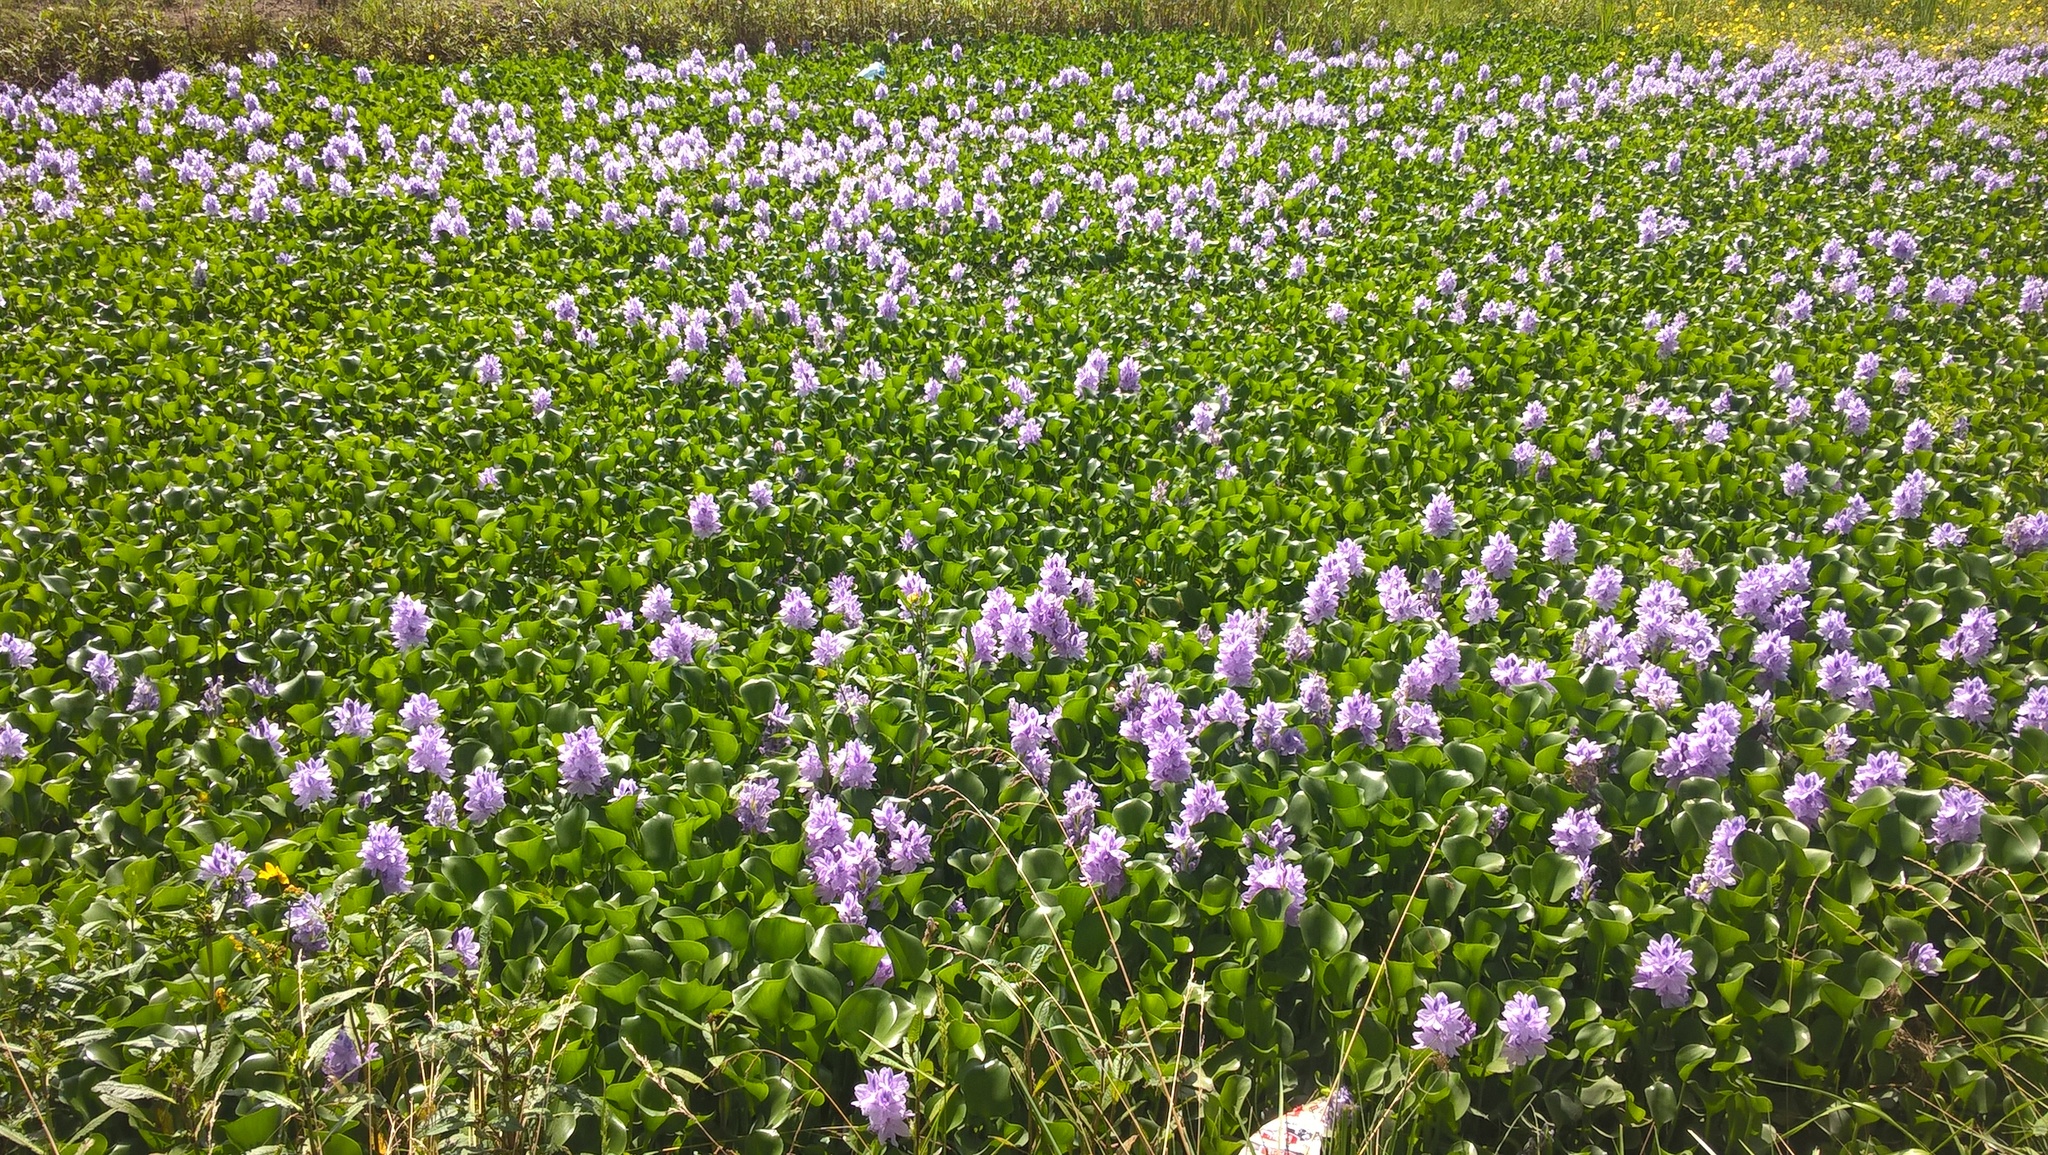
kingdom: Plantae
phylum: Tracheophyta
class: Liliopsida
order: Commelinales
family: Pontederiaceae
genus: Pontederia
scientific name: Pontederia crassipes
